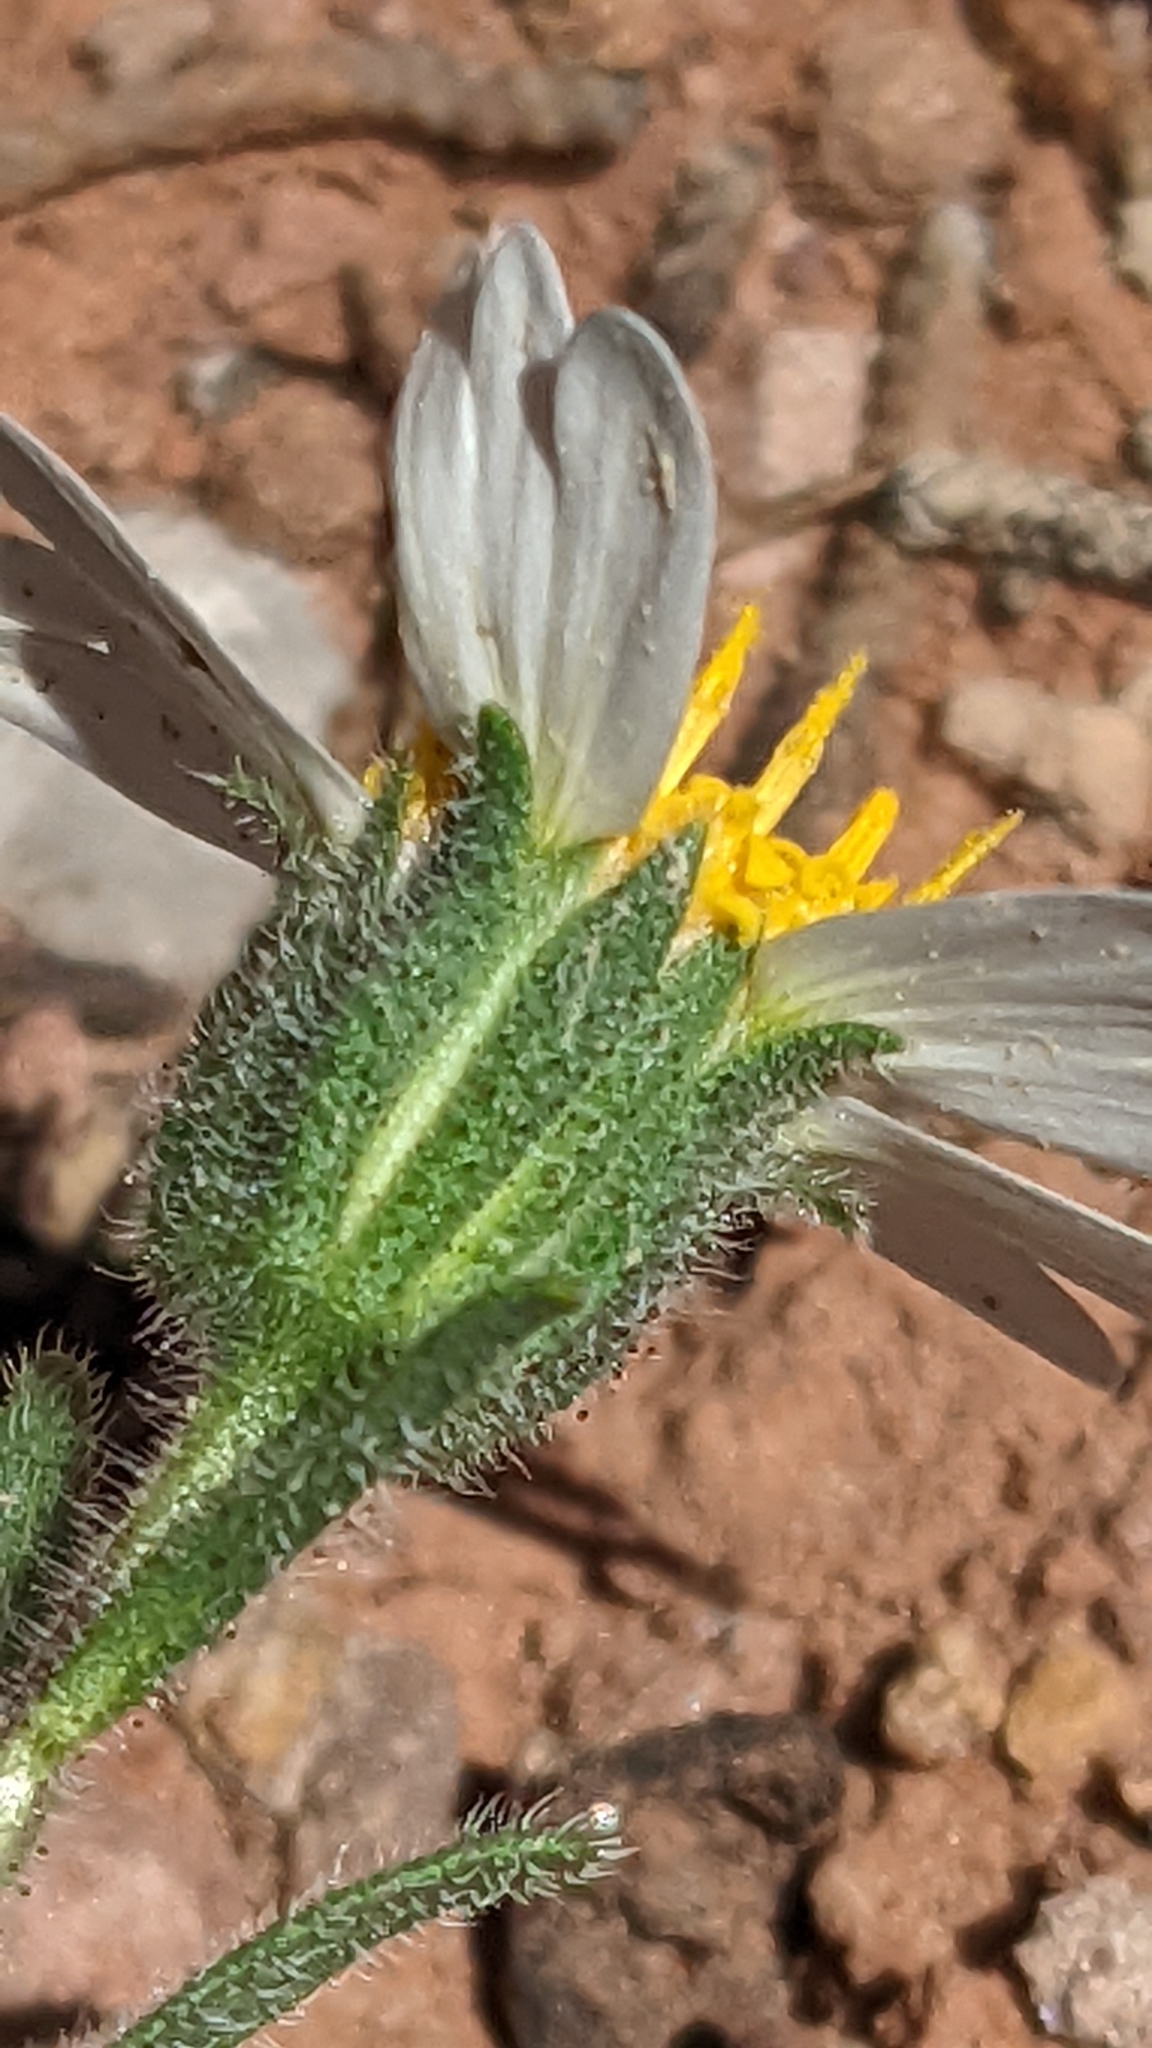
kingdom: Plantae
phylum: Tracheophyta
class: Magnoliopsida
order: Asterales
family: Asteraceae
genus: Layia
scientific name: Layia glandulosa
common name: White layia
